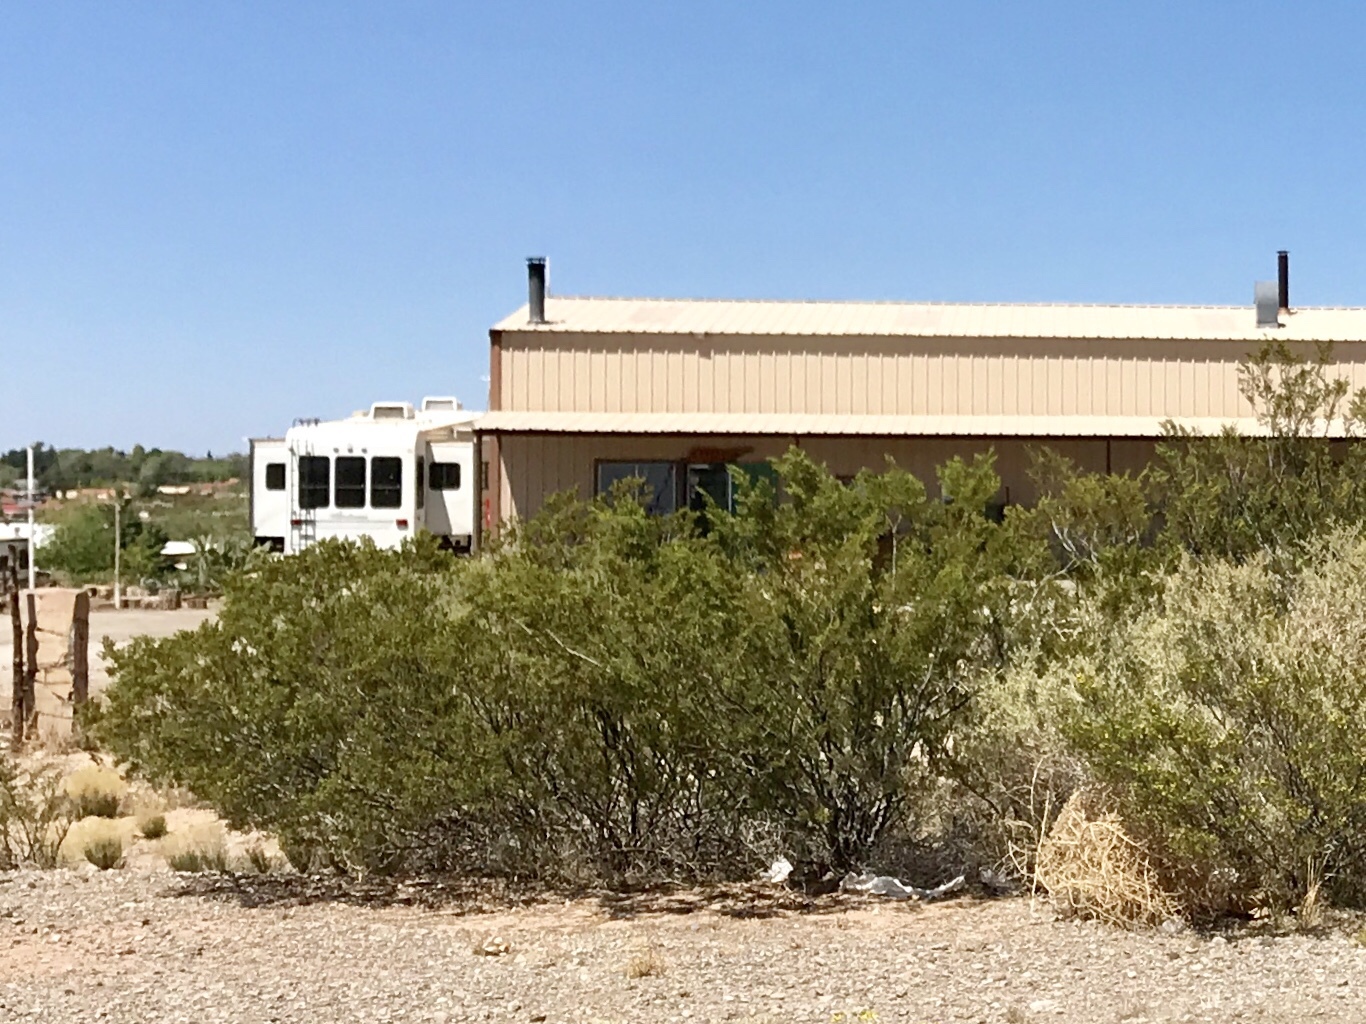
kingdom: Plantae
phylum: Tracheophyta
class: Magnoliopsida
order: Zygophyllales
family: Zygophyllaceae
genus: Larrea
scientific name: Larrea tridentata
